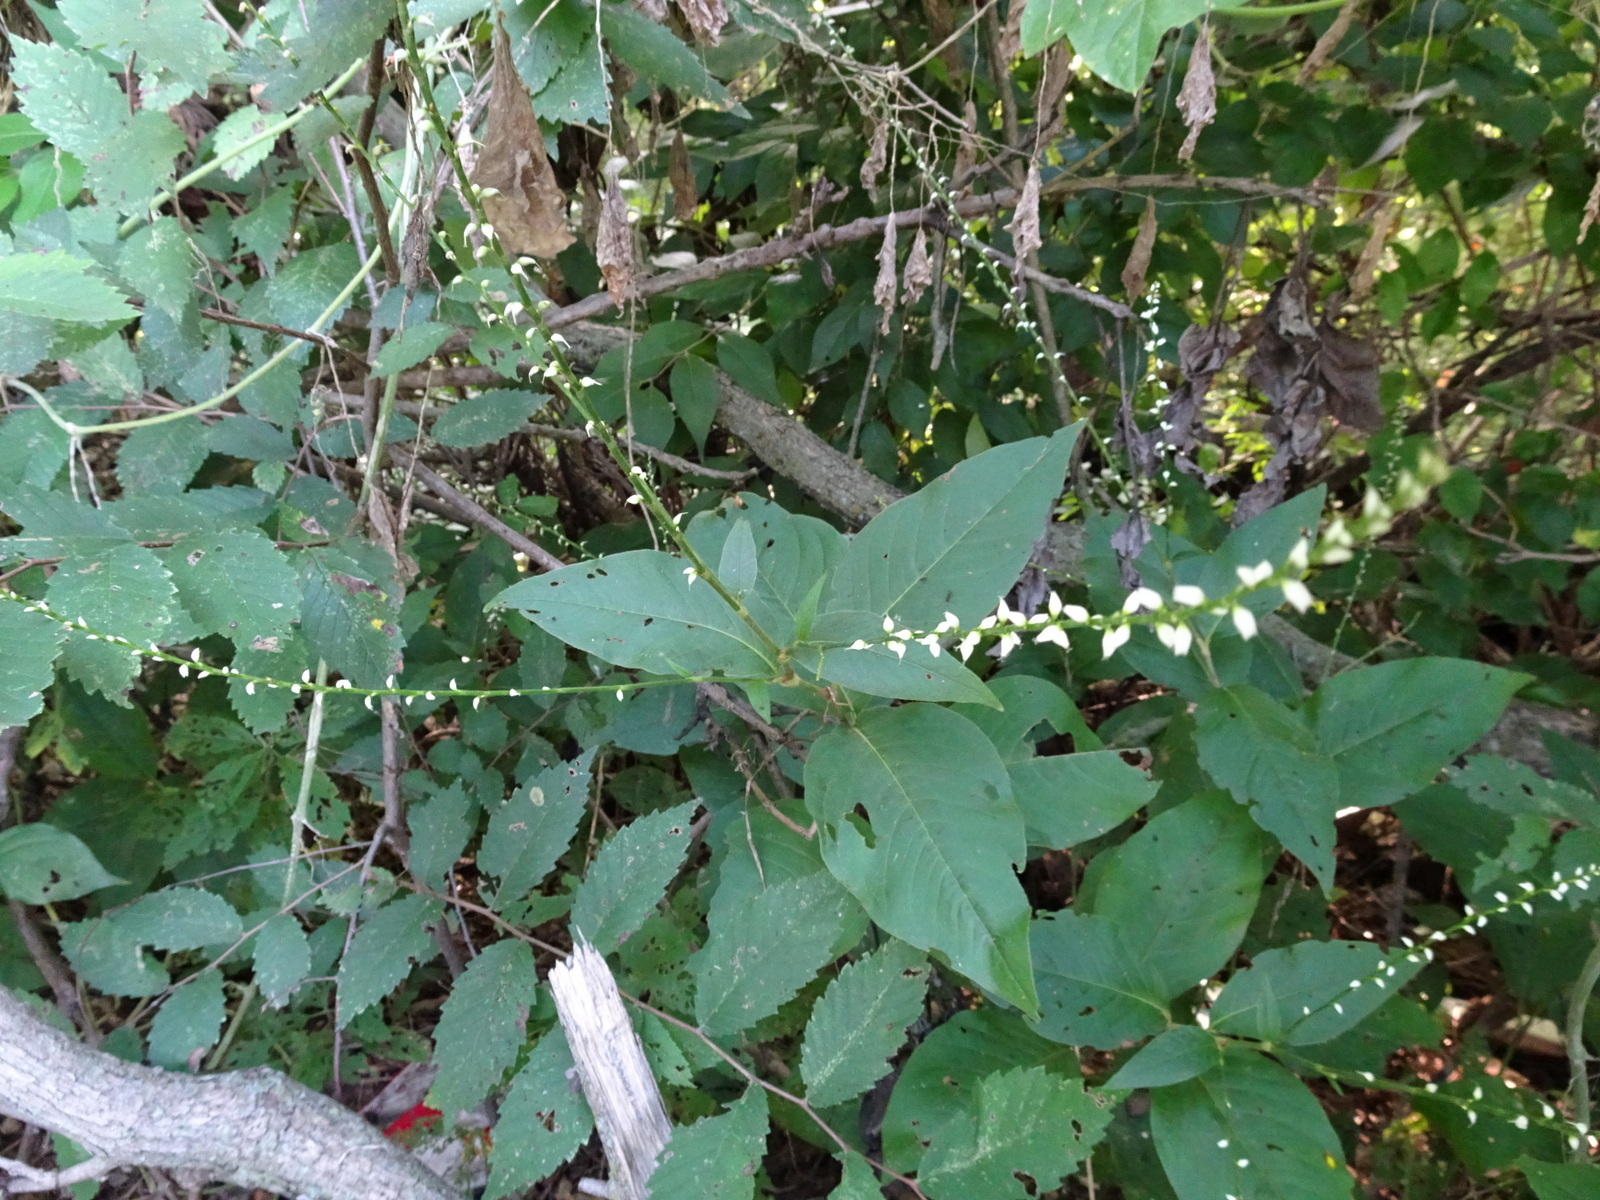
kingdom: Plantae
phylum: Tracheophyta
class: Magnoliopsida
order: Caryophyllales
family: Polygonaceae
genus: Persicaria
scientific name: Persicaria virginiana
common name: Jumpseed
